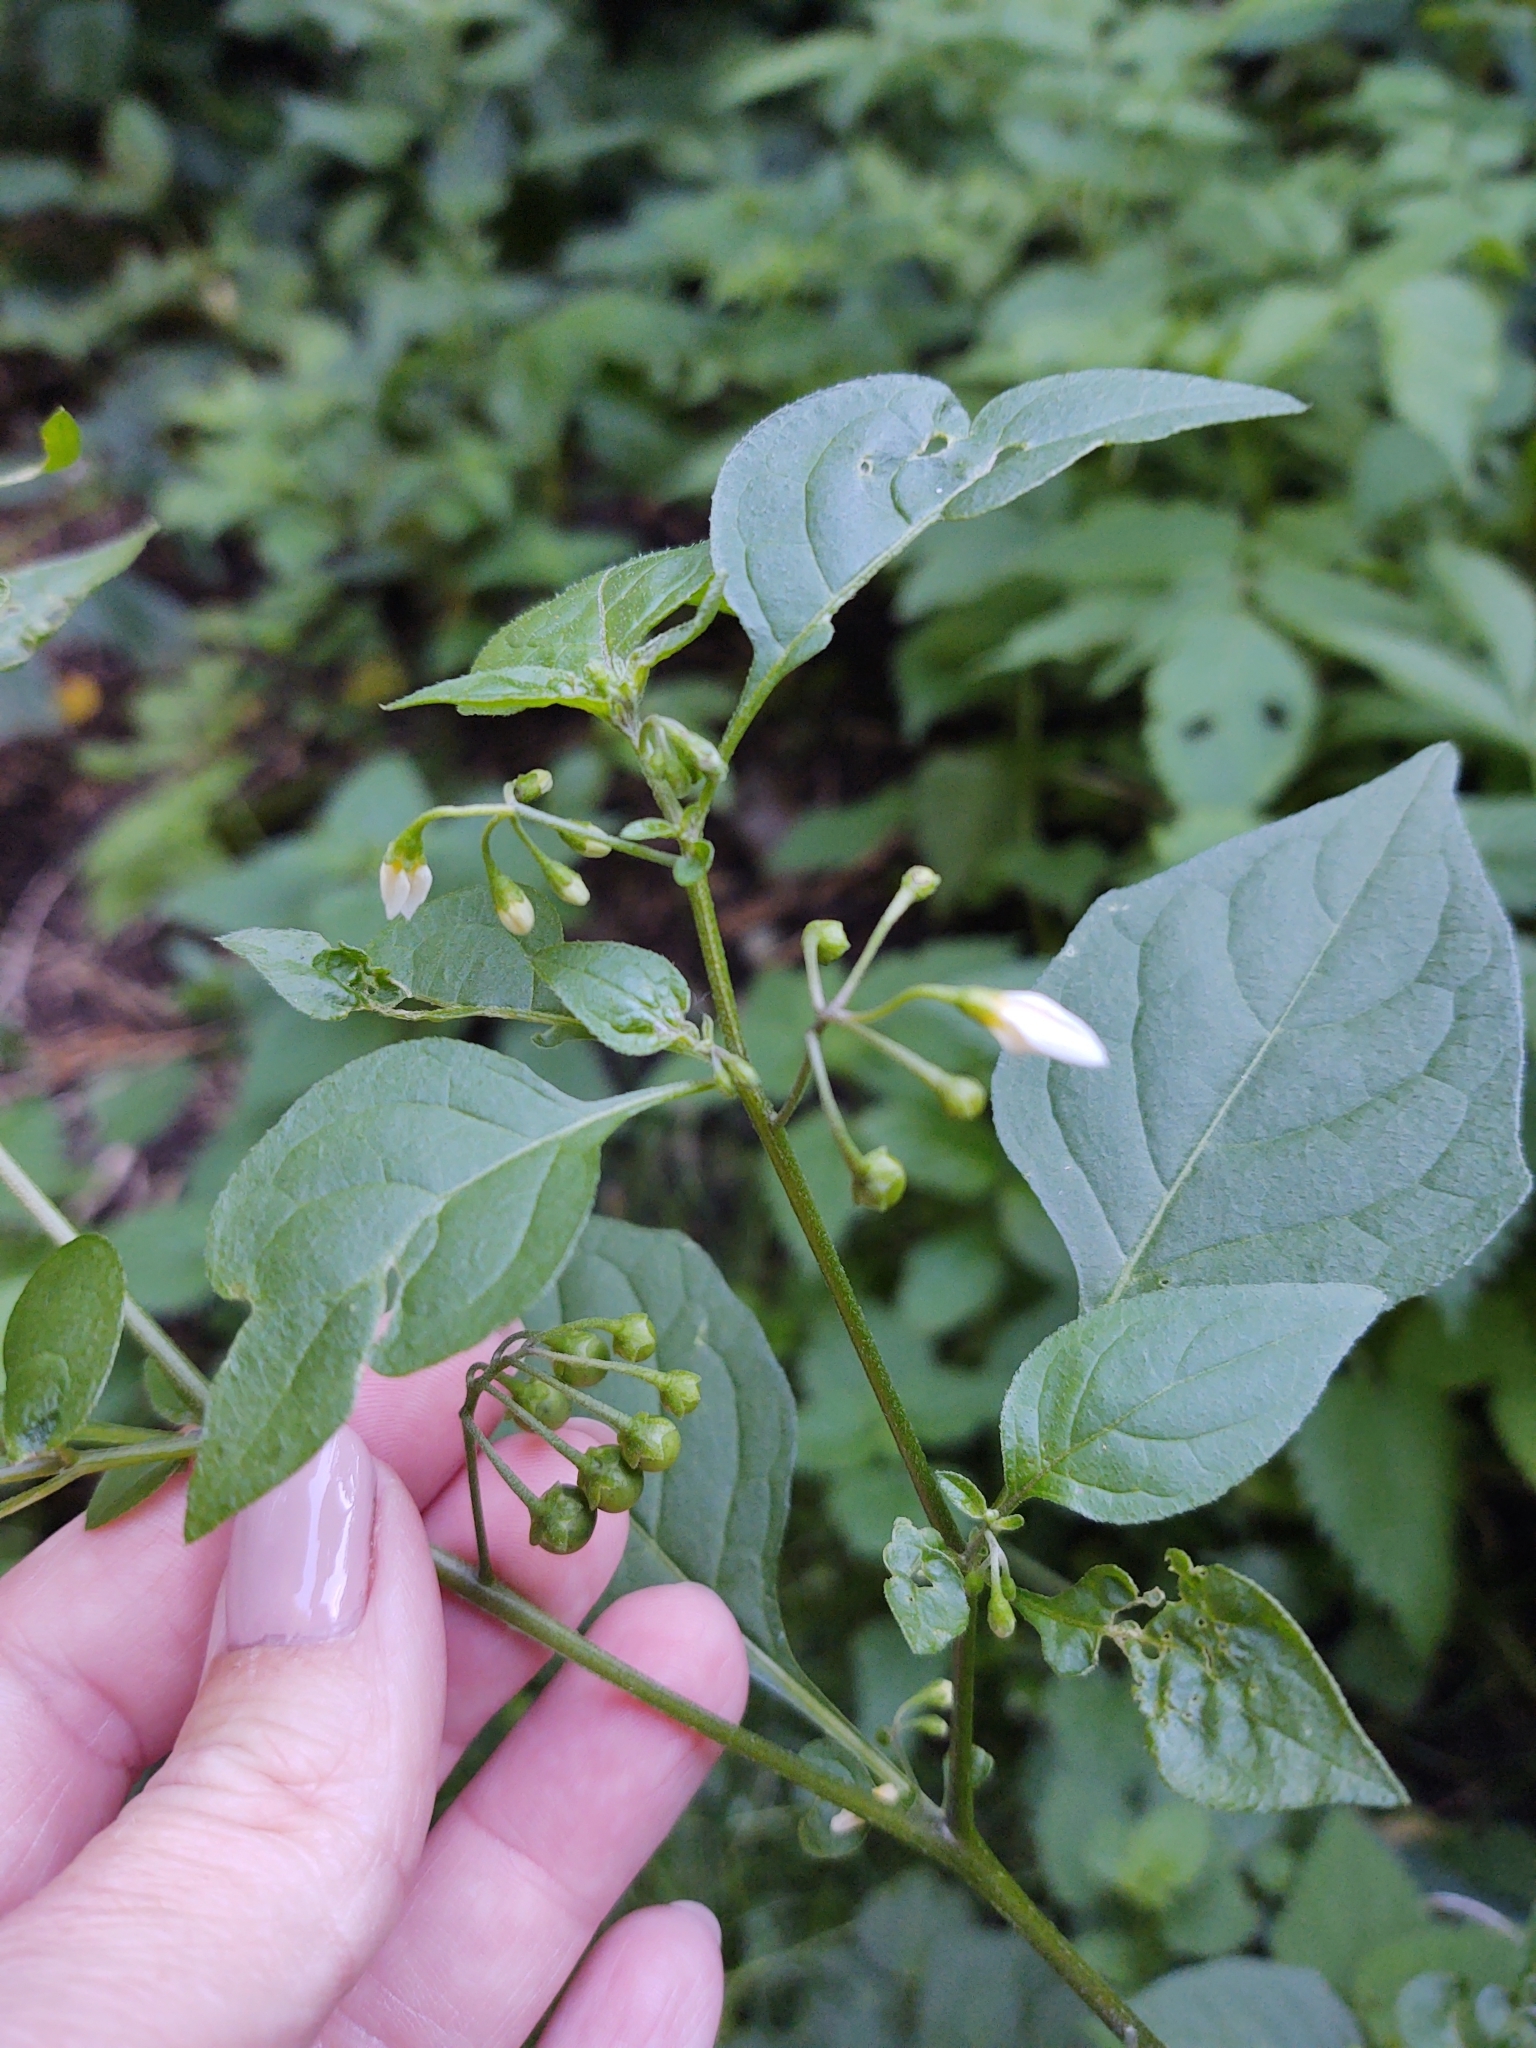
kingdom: Plantae
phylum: Tracheophyta
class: Magnoliopsida
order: Solanales
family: Solanaceae
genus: Solanum
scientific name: Solanum nigrum
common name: Black nightshade
